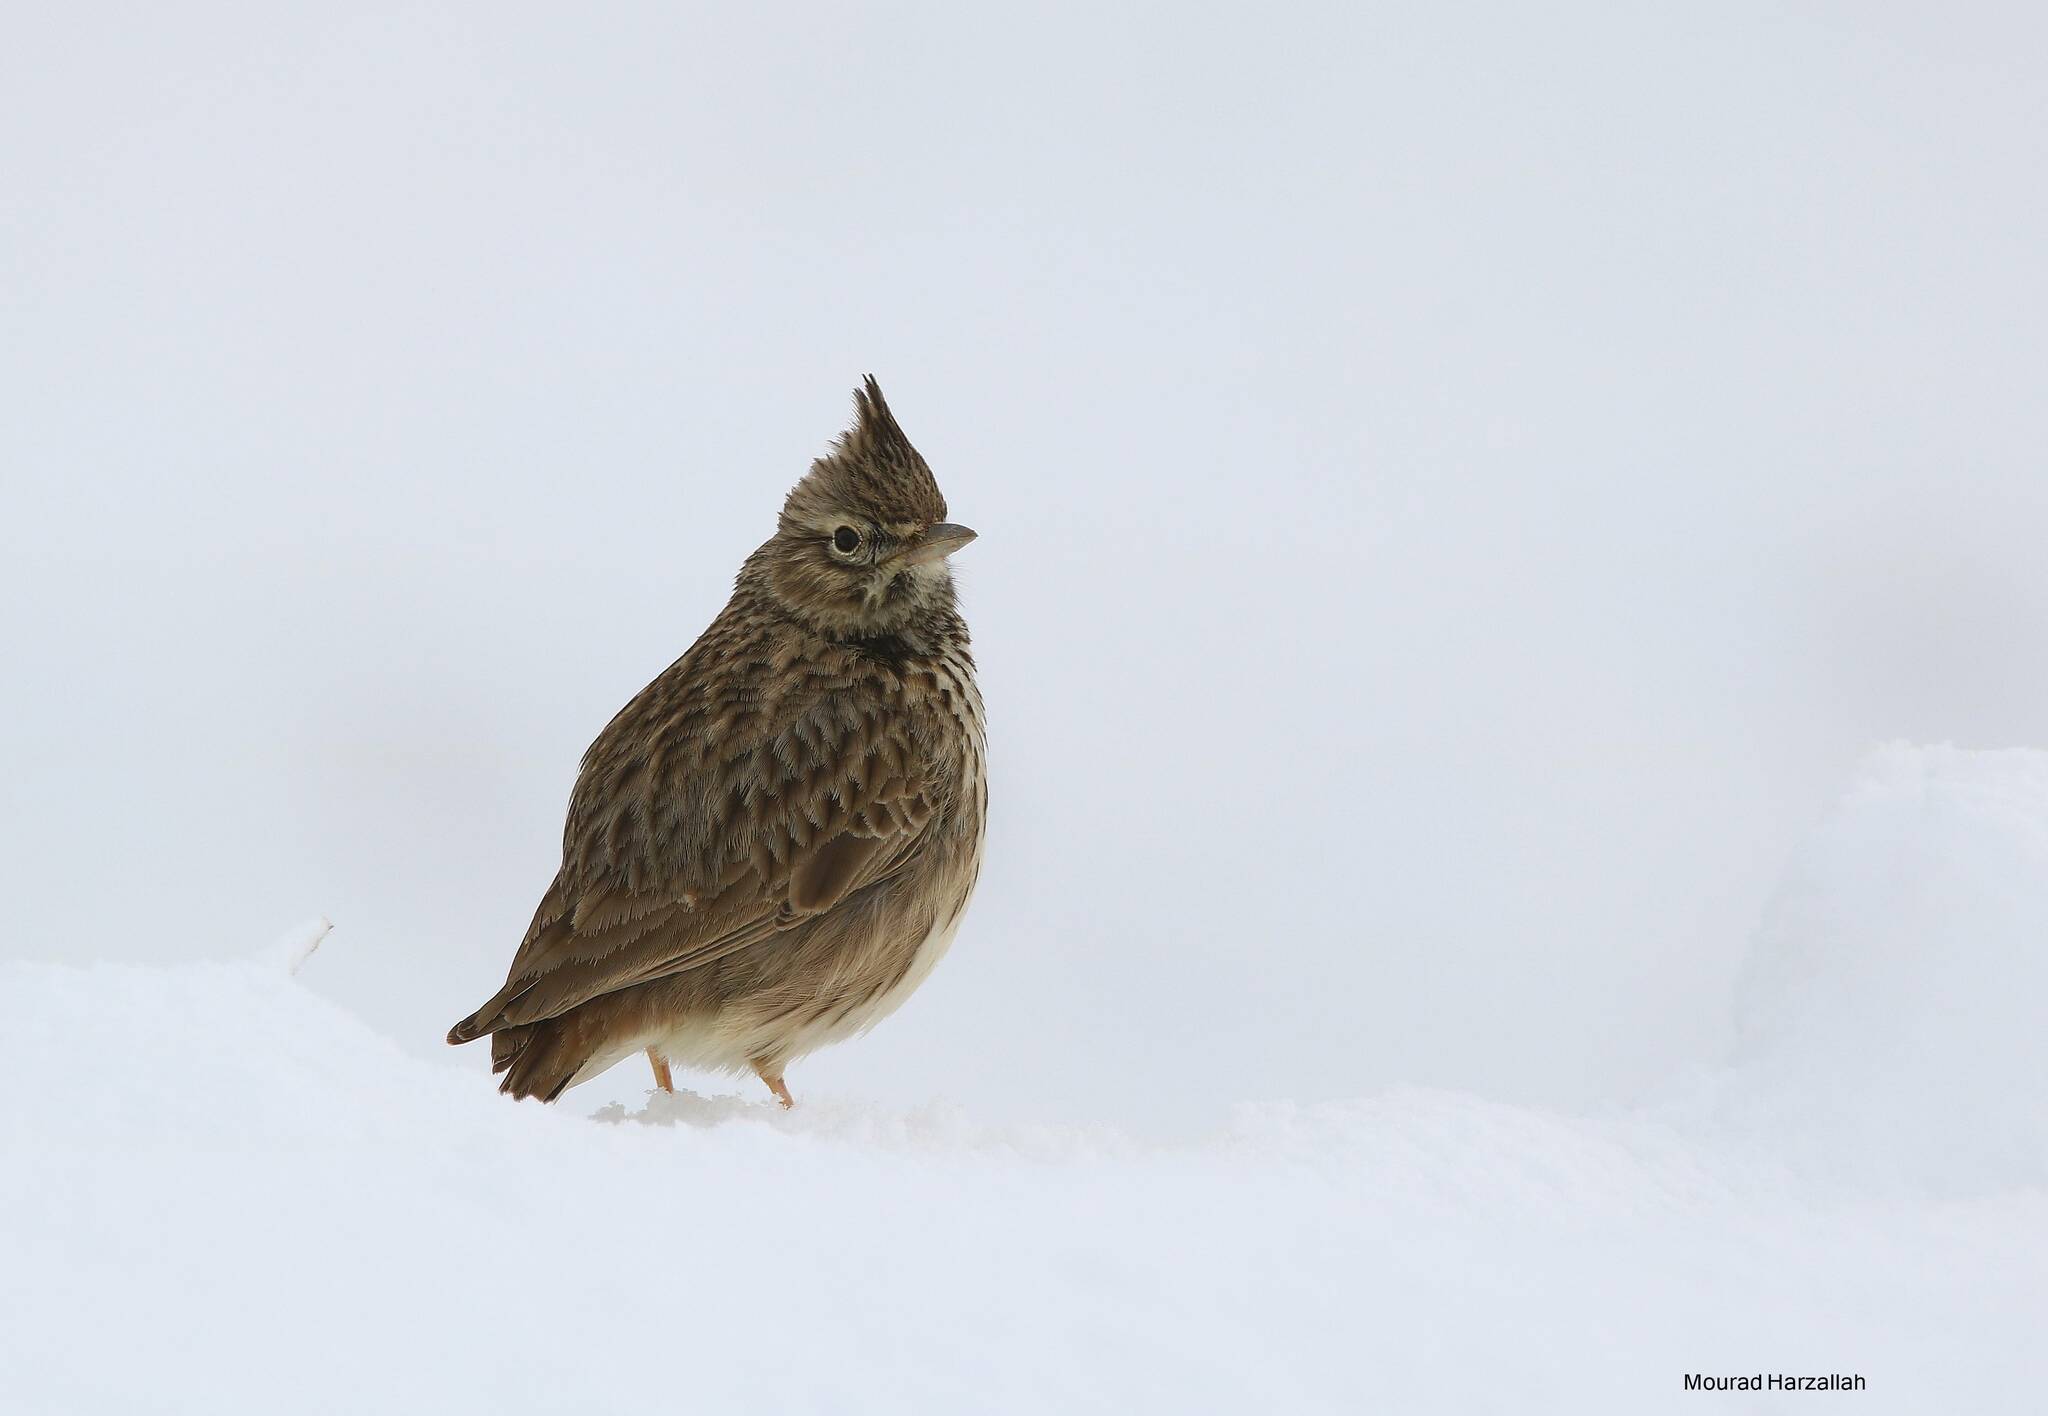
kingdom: Animalia
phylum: Chordata
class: Aves
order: Passeriformes
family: Alaudidae
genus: Galerida
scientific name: Galerida theklae
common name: Thekla lark
